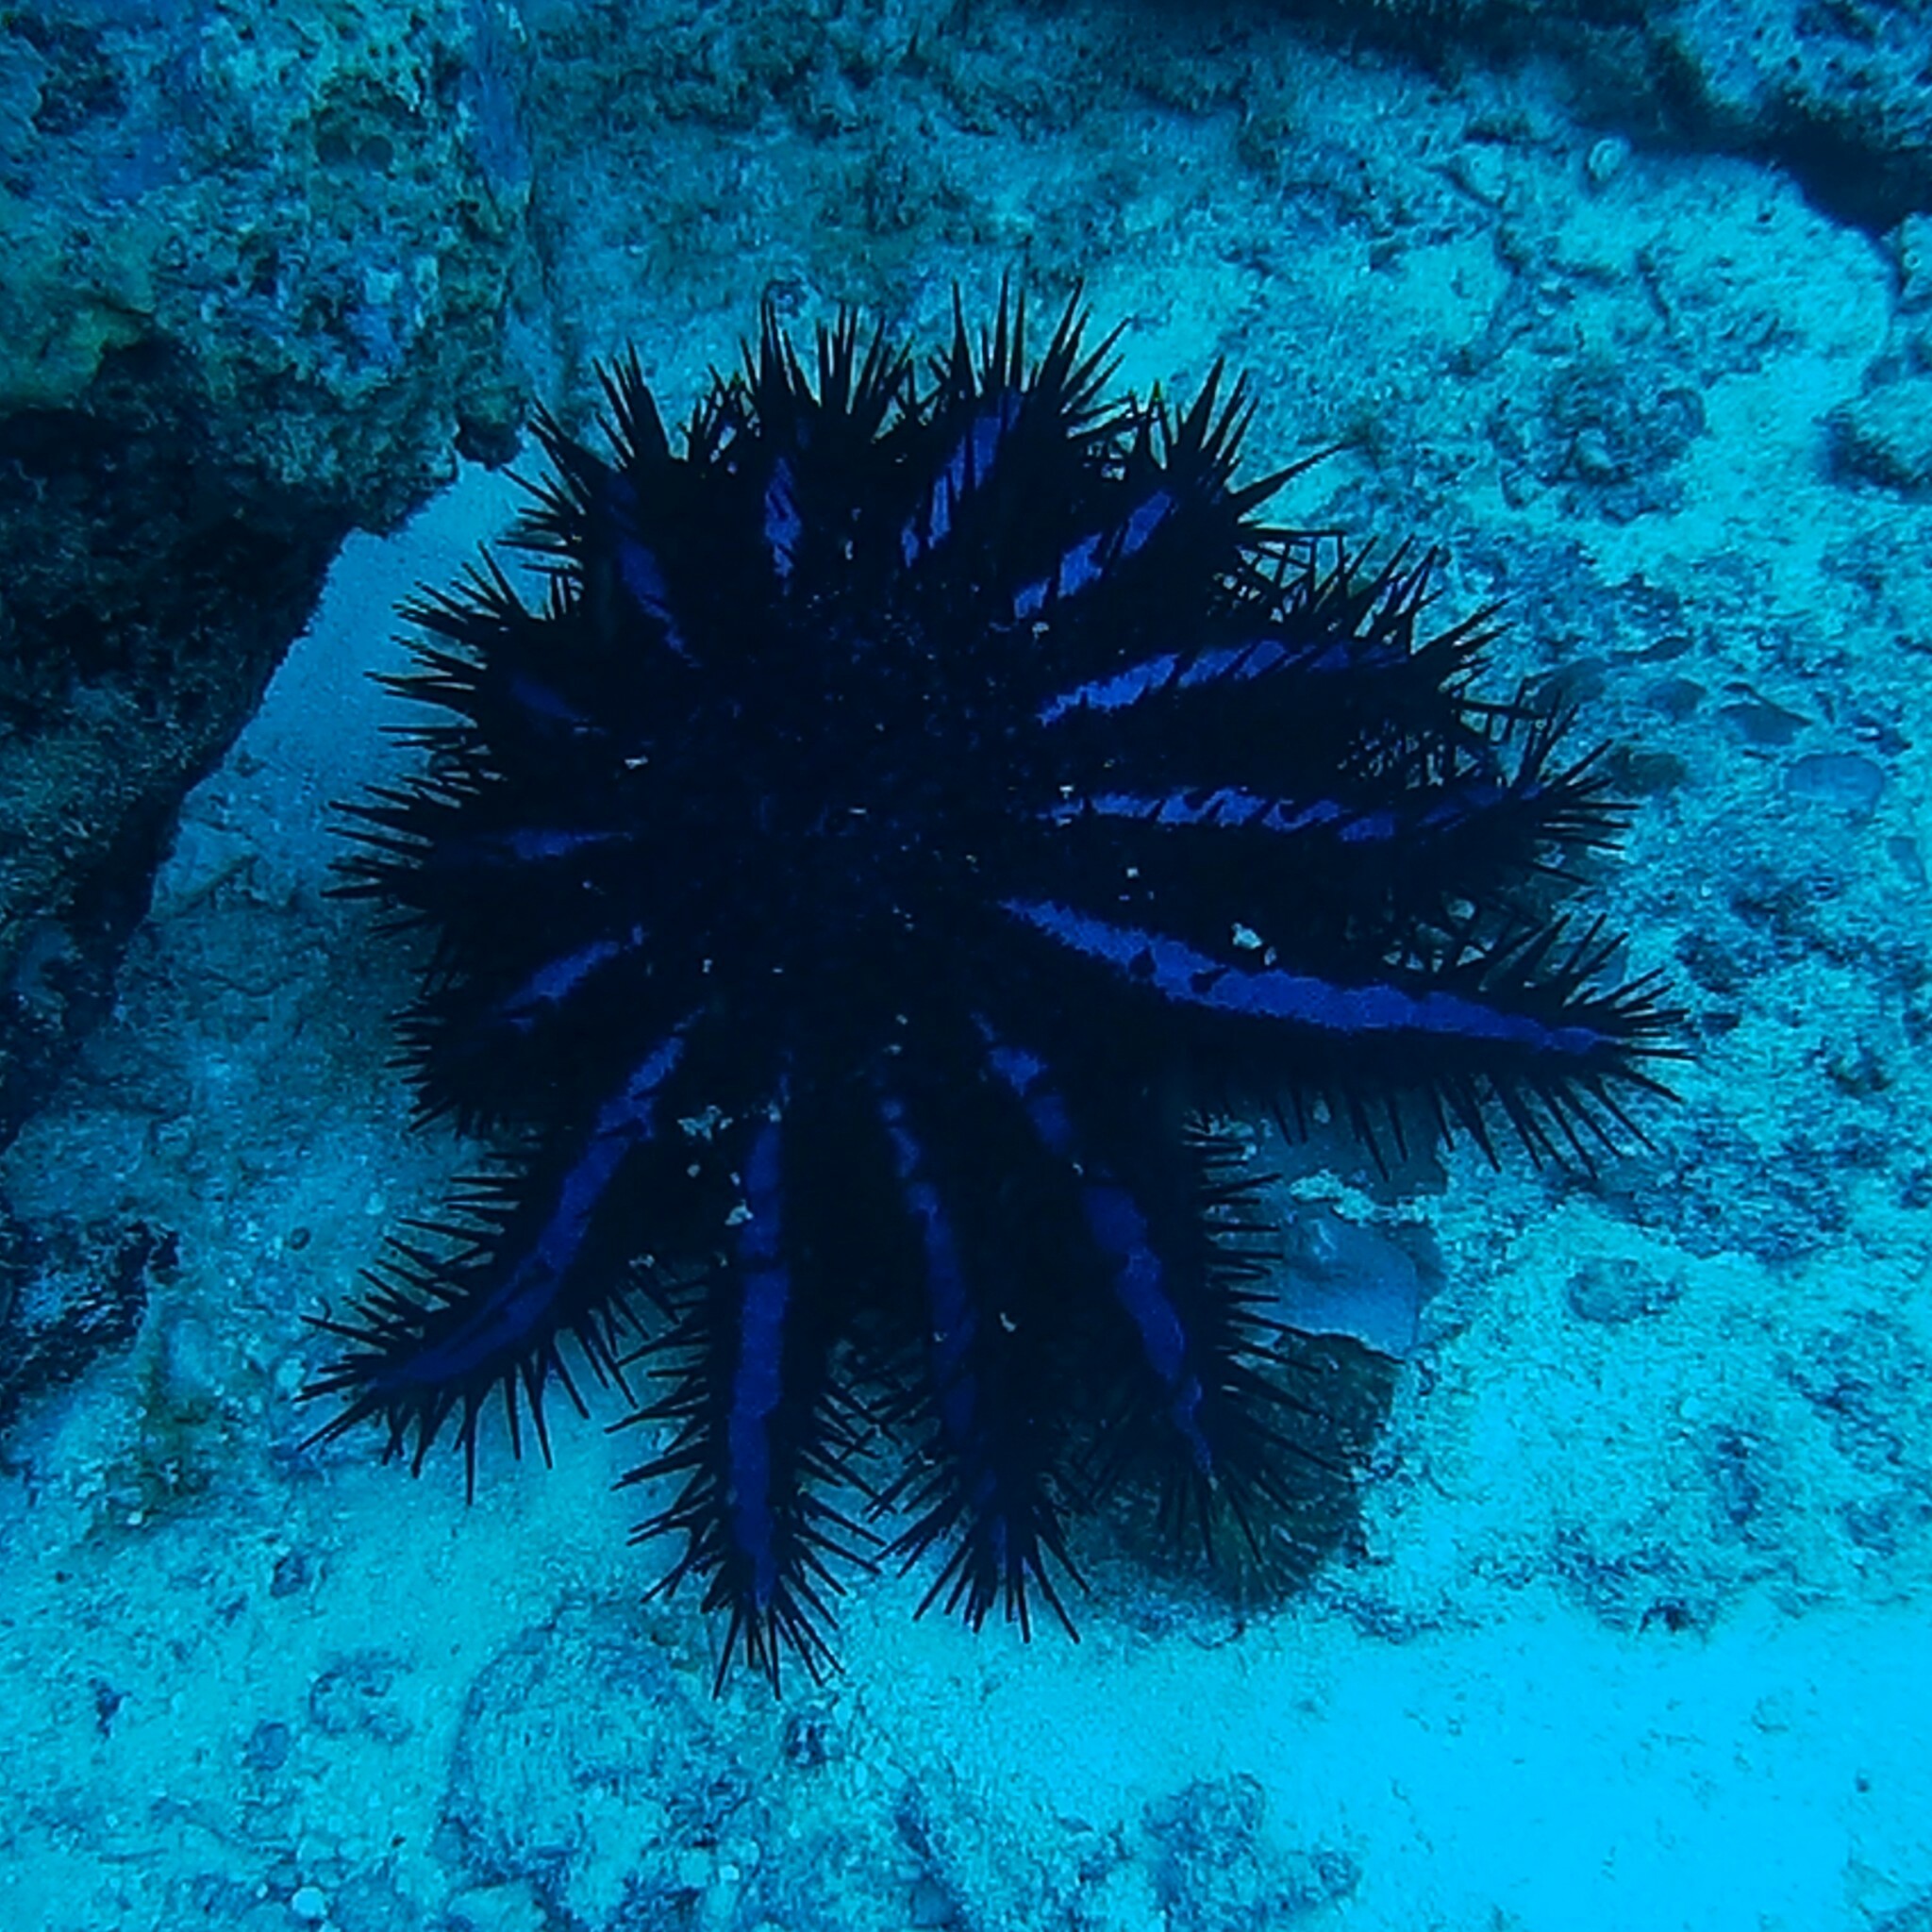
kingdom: Animalia
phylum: Echinodermata
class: Asteroidea
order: Valvatida
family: Acanthasteridae
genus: Acanthaster
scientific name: Acanthaster planci
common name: Crown-of-thorns
